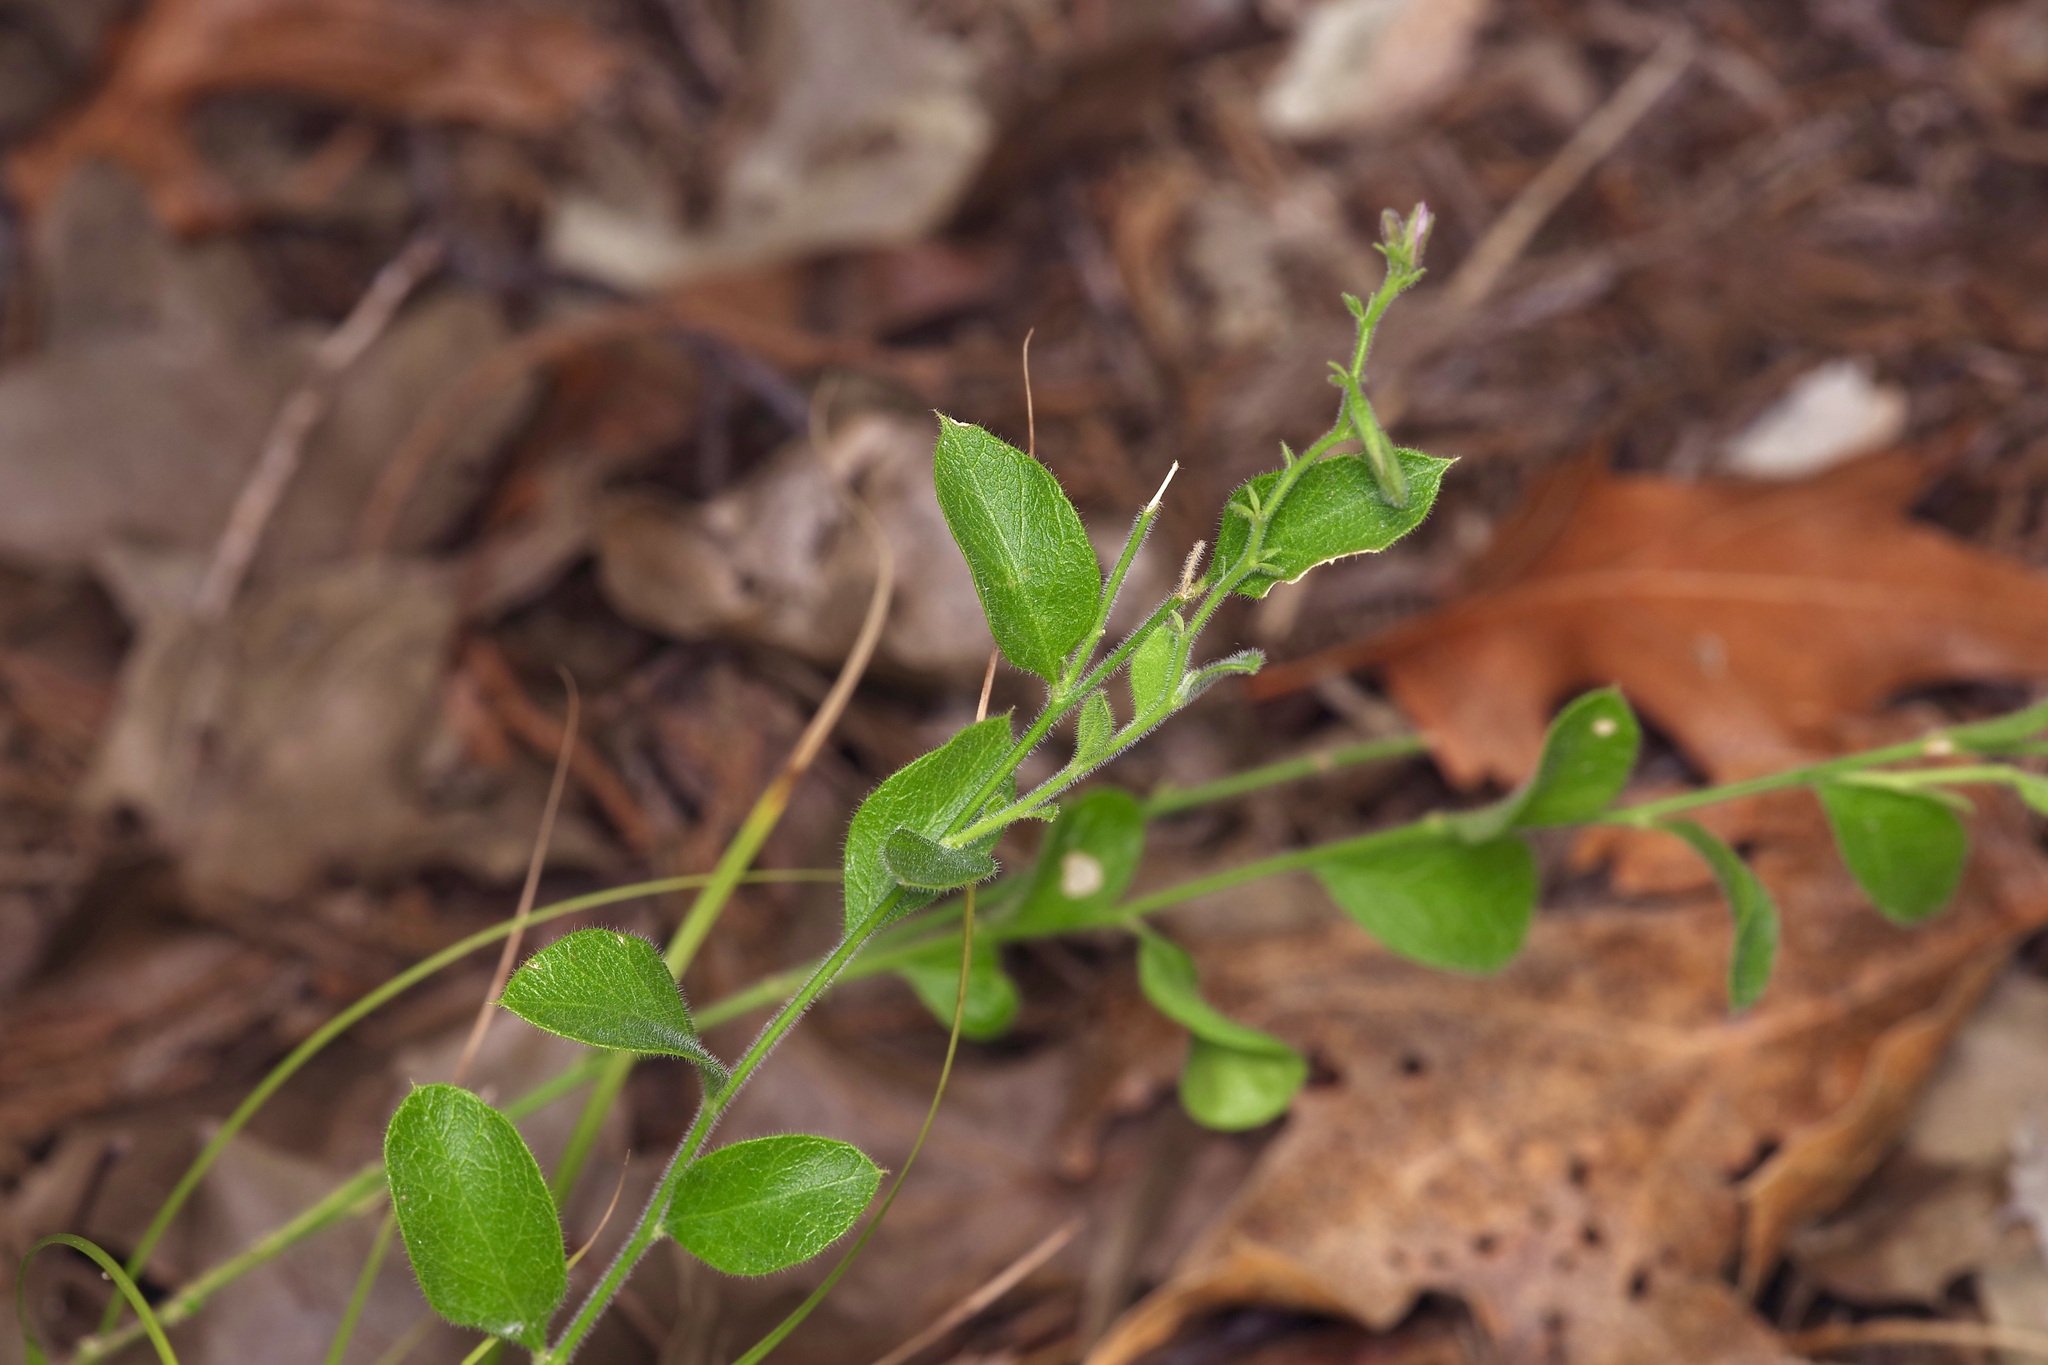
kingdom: Plantae
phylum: Tracheophyta
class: Magnoliopsida
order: Fabales
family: Polygalaceae
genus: Rhinotropis
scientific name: Rhinotropis lindheimeri
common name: Shrubby milkwort
